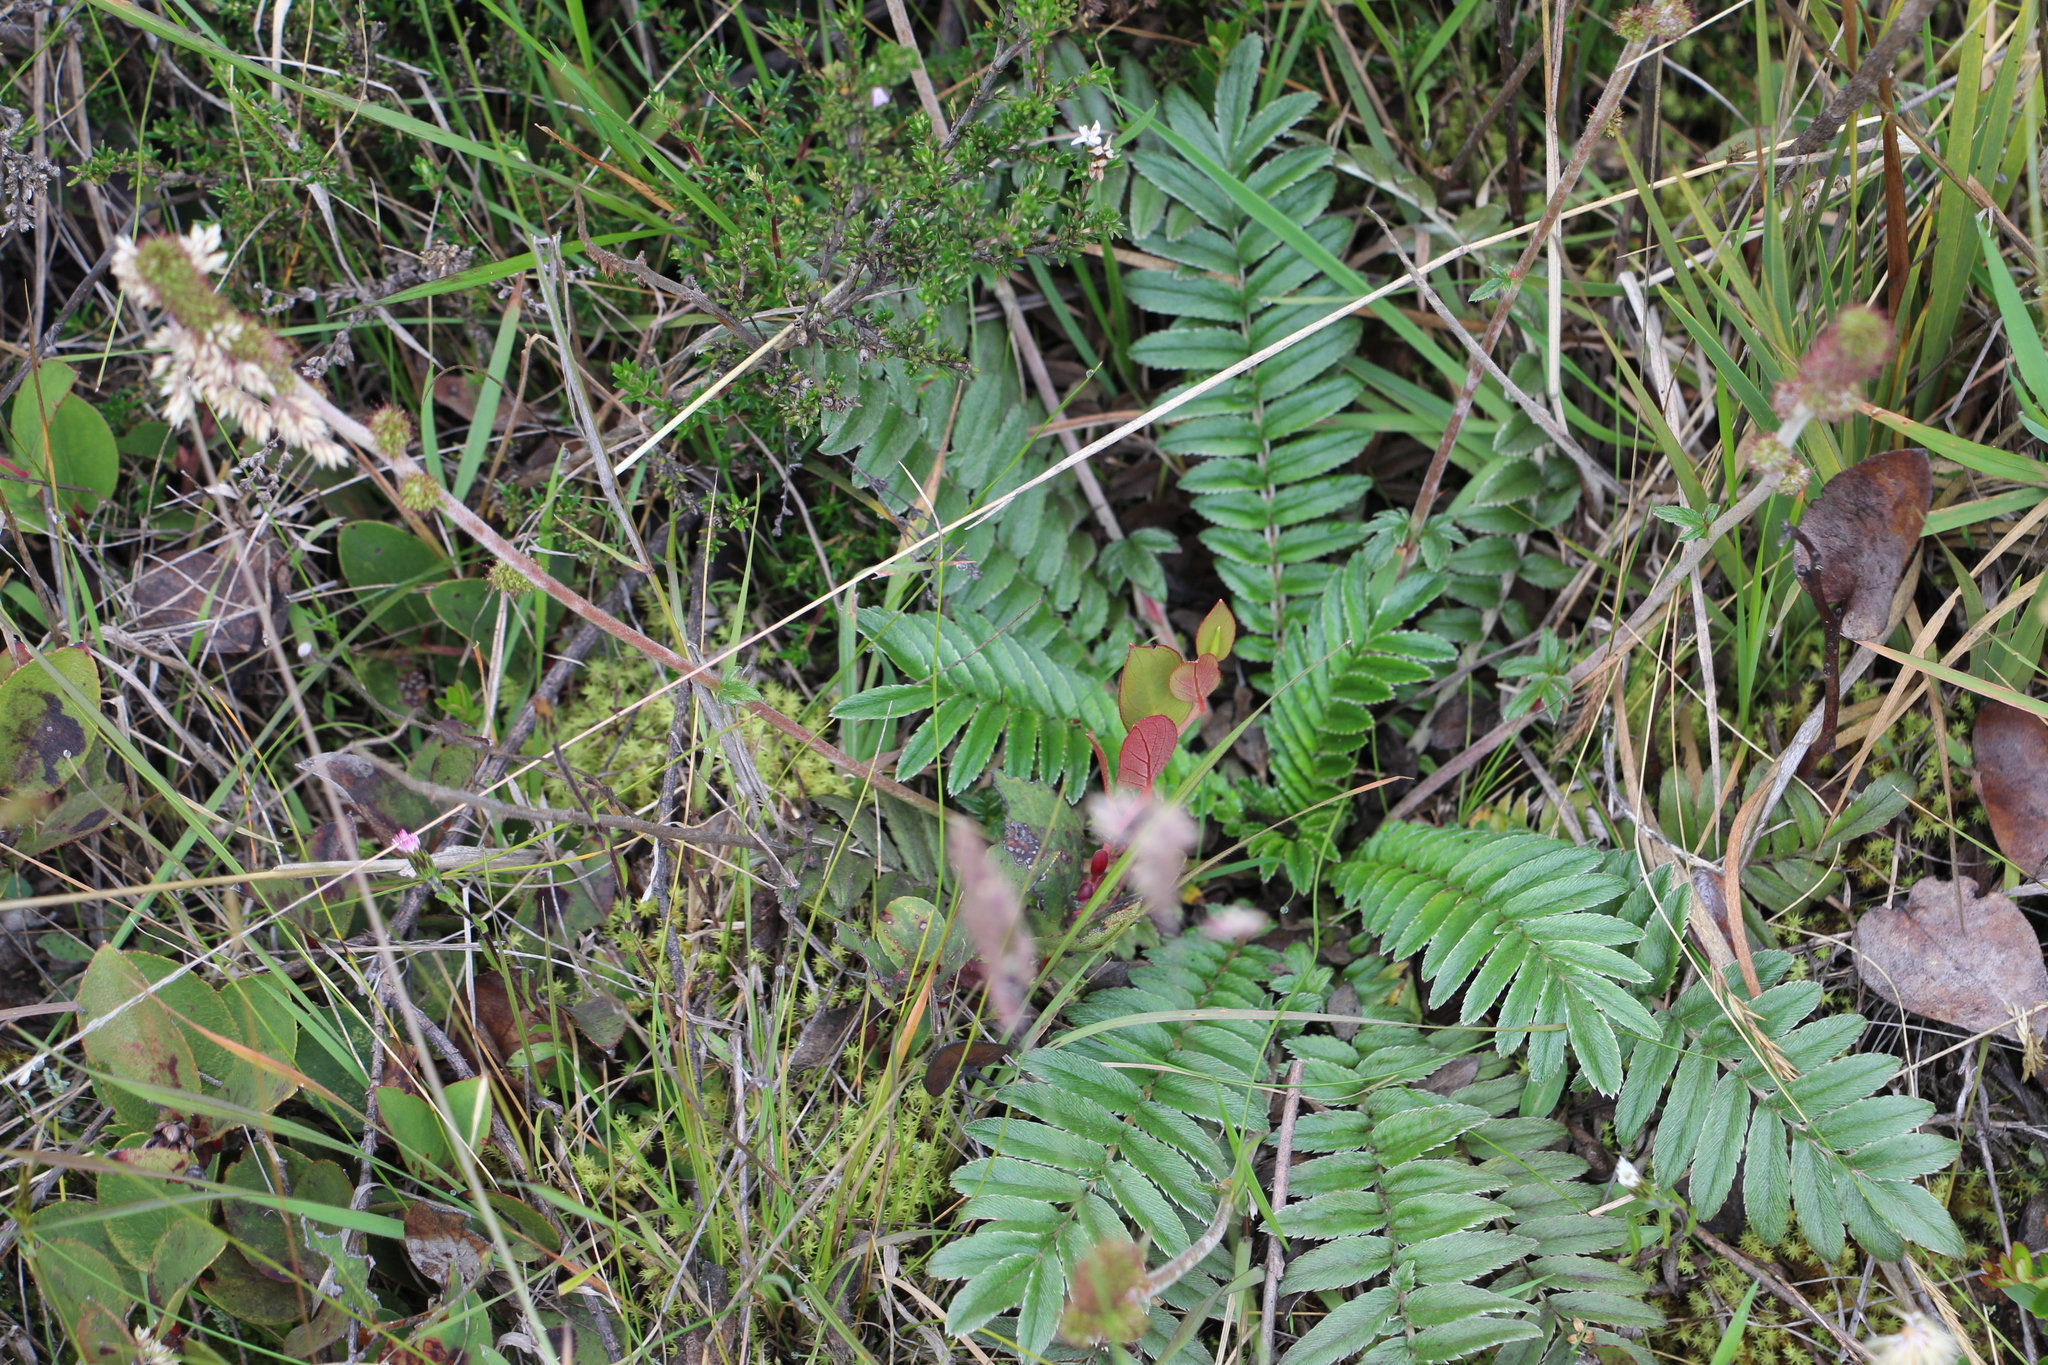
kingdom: Plantae
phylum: Tracheophyta
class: Magnoliopsida
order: Rosales
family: Rosaceae
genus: Acaena
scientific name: Acaena cylindristachya
